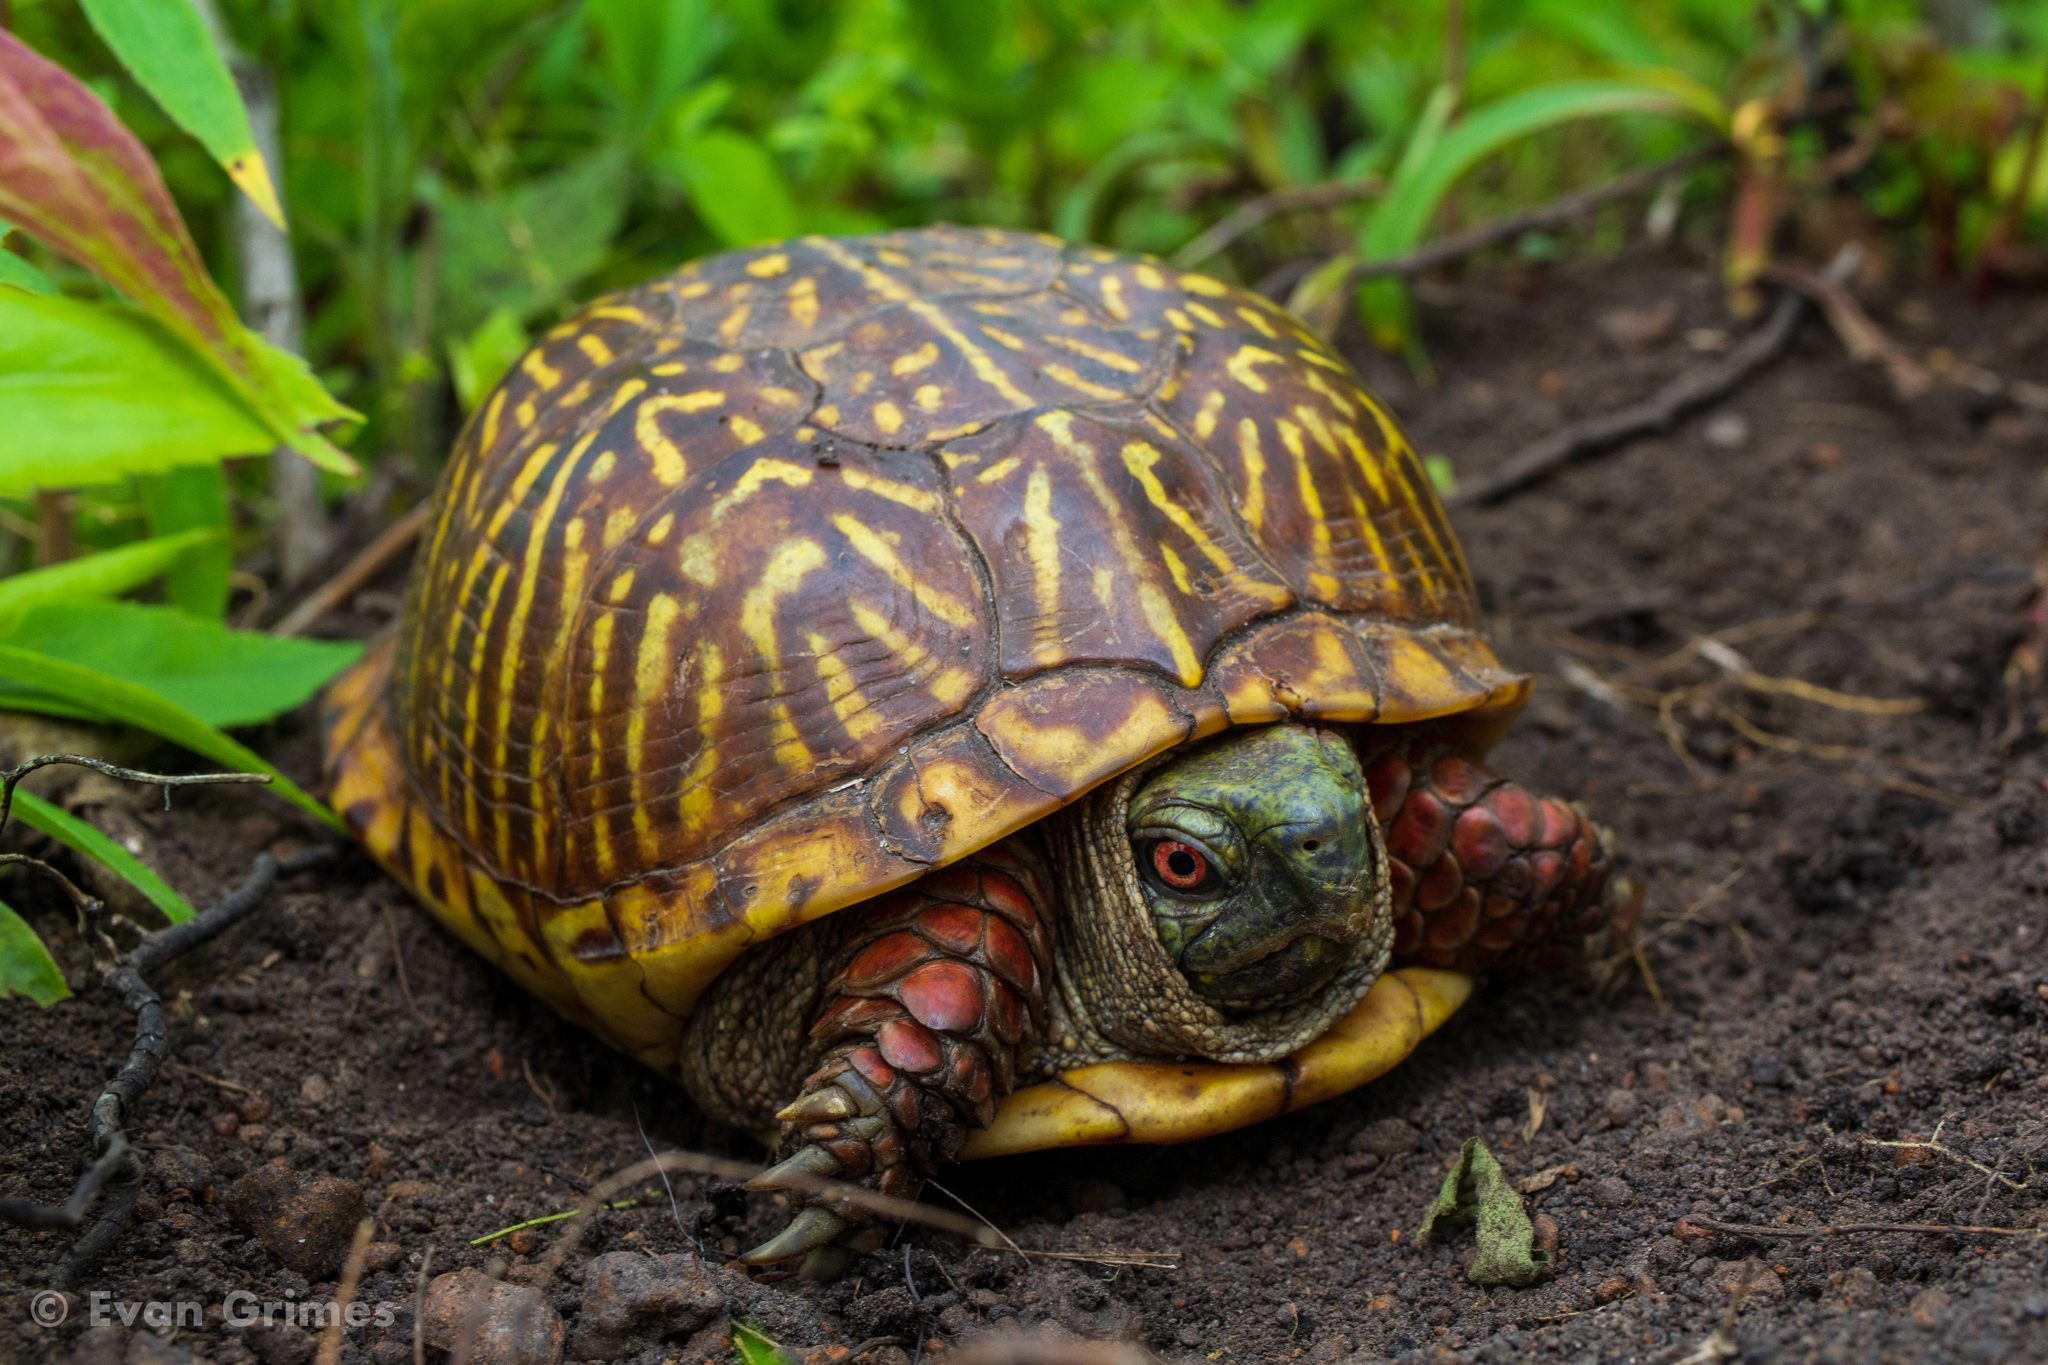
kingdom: Animalia
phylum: Chordata
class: Testudines
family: Emydidae
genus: Terrapene
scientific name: Terrapene ornata
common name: Western box turtle
